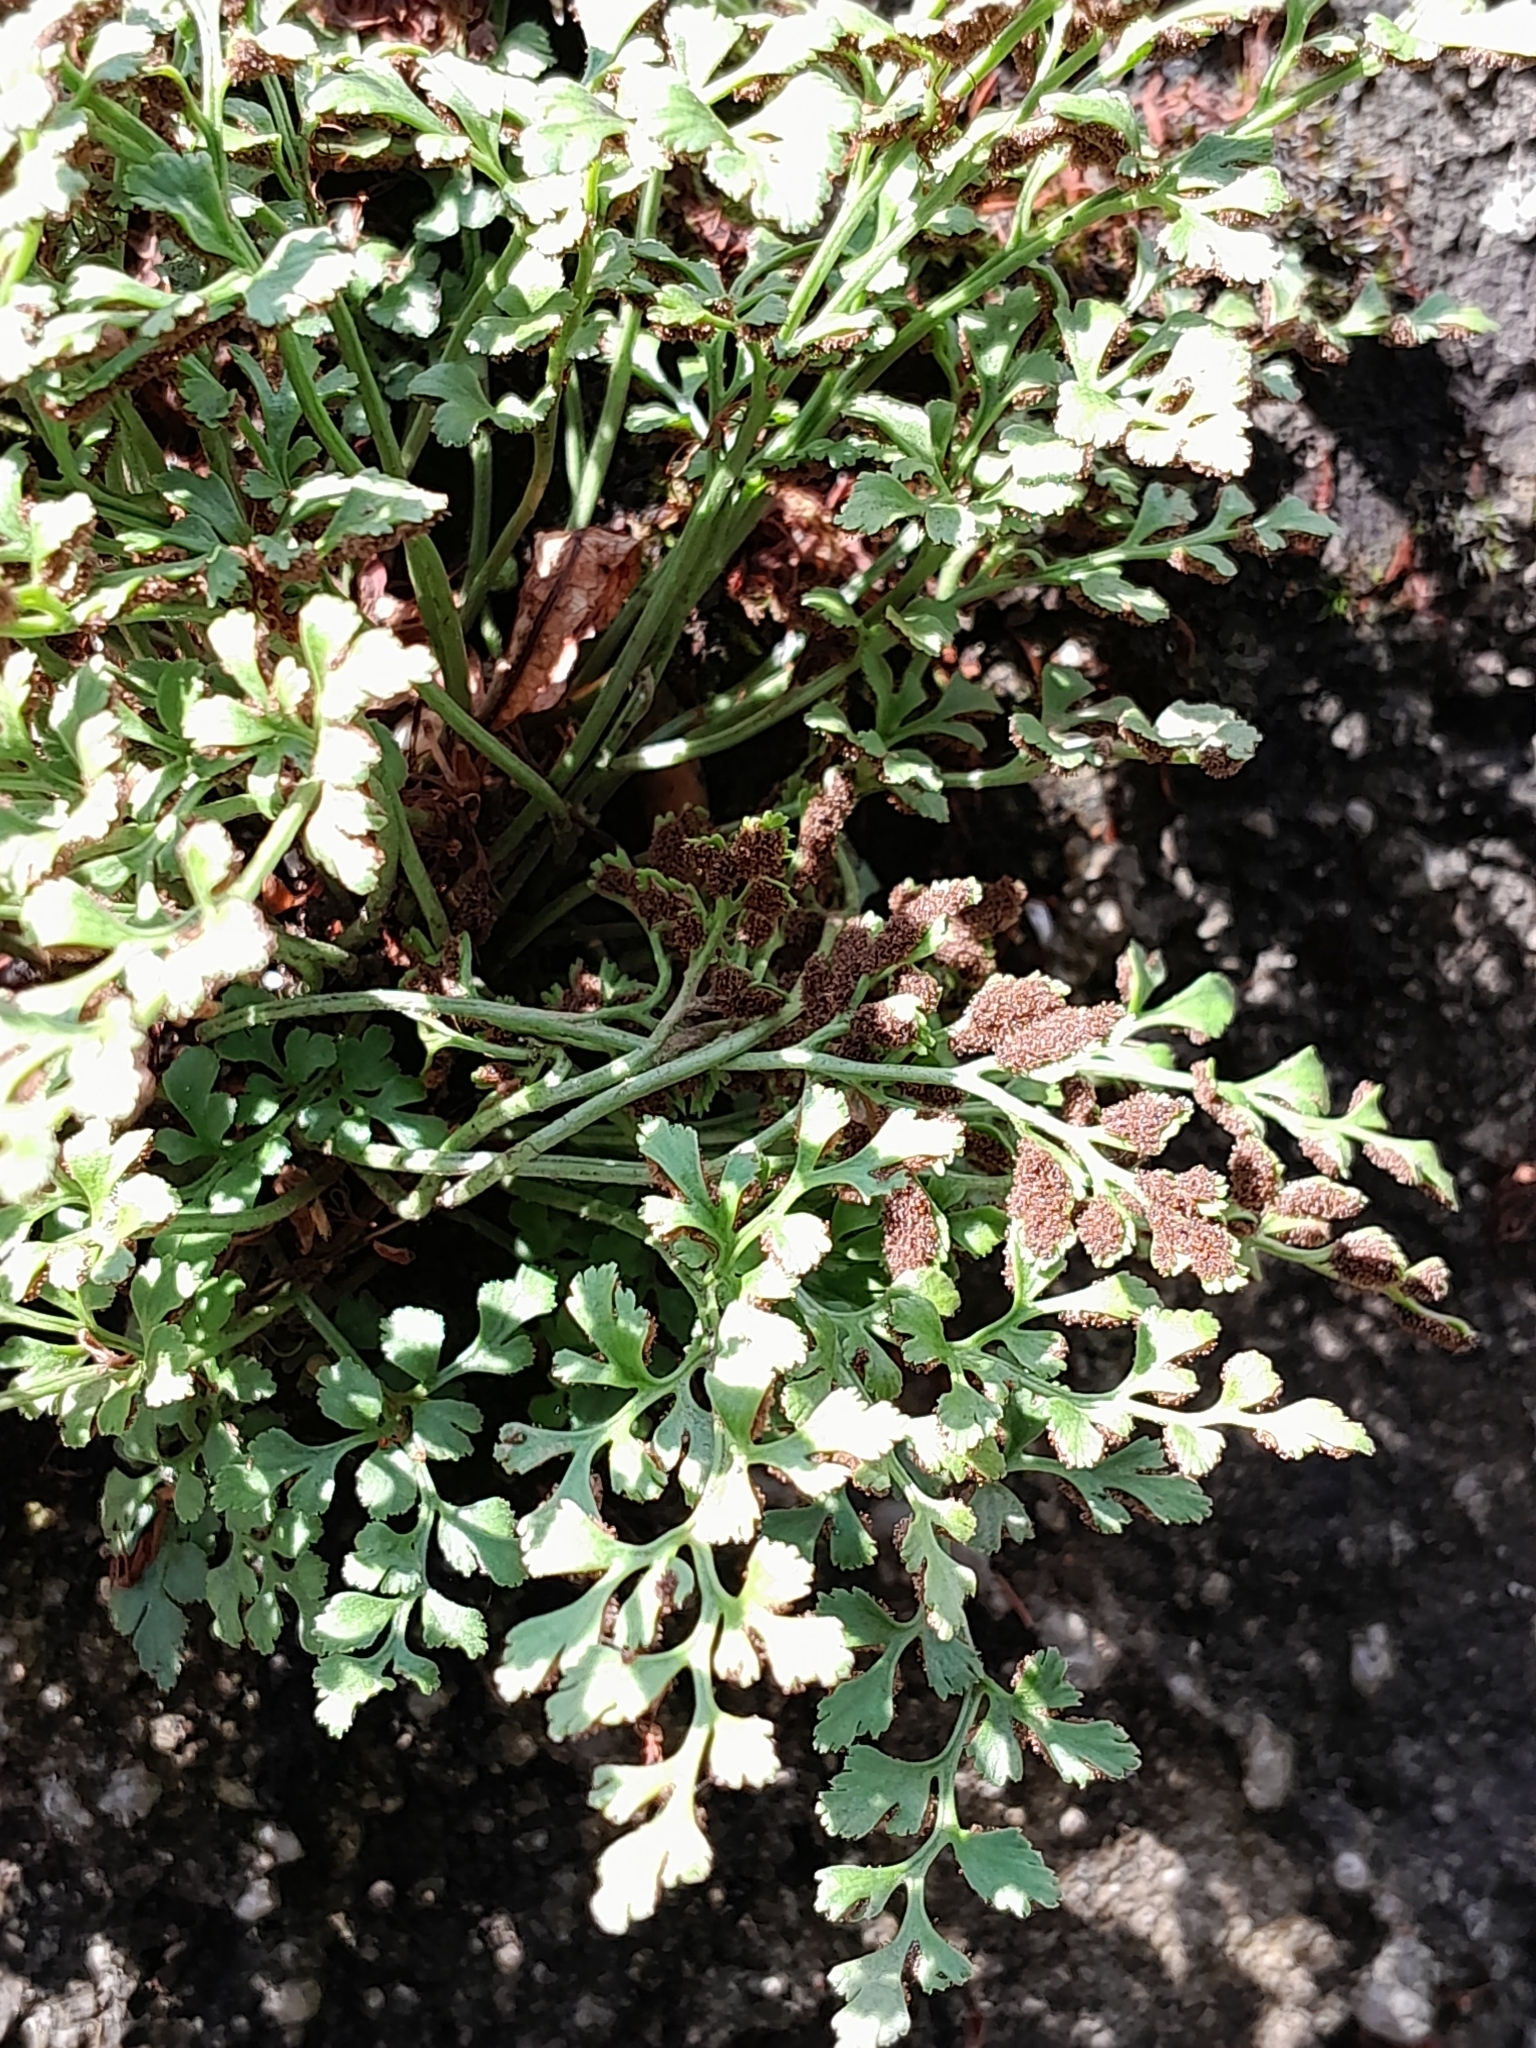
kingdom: Plantae
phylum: Tracheophyta
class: Polypodiopsida
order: Polypodiales
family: Aspleniaceae
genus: Asplenium
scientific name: Asplenium ruta-muraria
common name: Wall-rue
